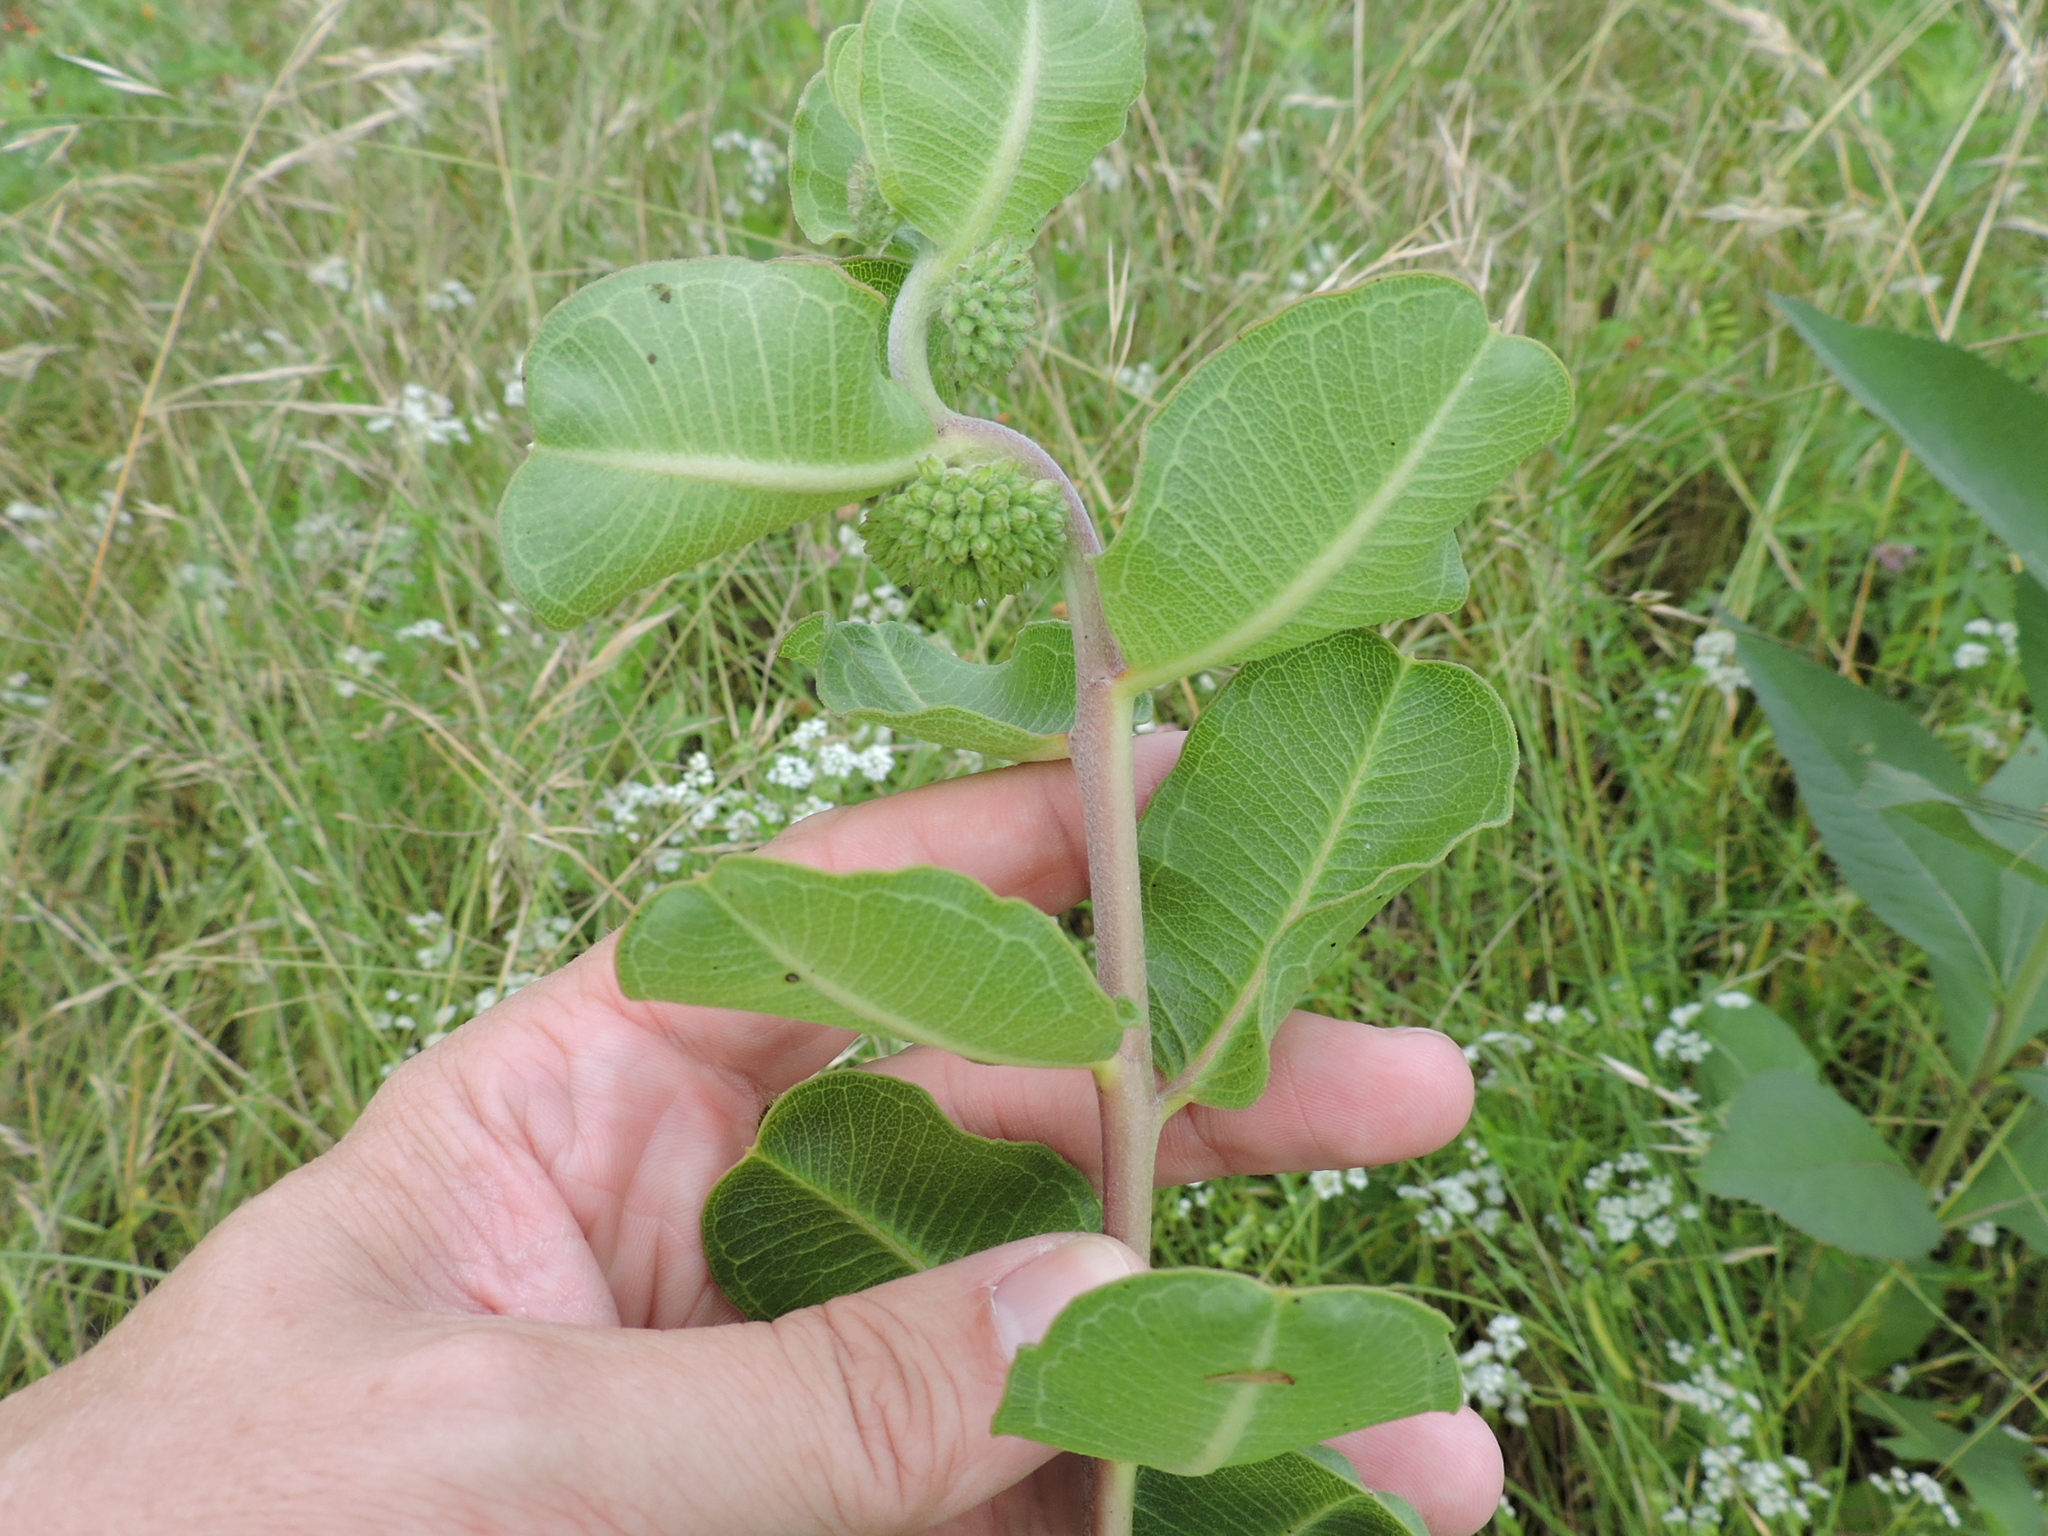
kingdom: Plantae
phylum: Tracheophyta
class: Magnoliopsida
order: Gentianales
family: Apocynaceae
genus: Asclepias
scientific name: Asclepias viridiflora
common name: Green comet milkweed
